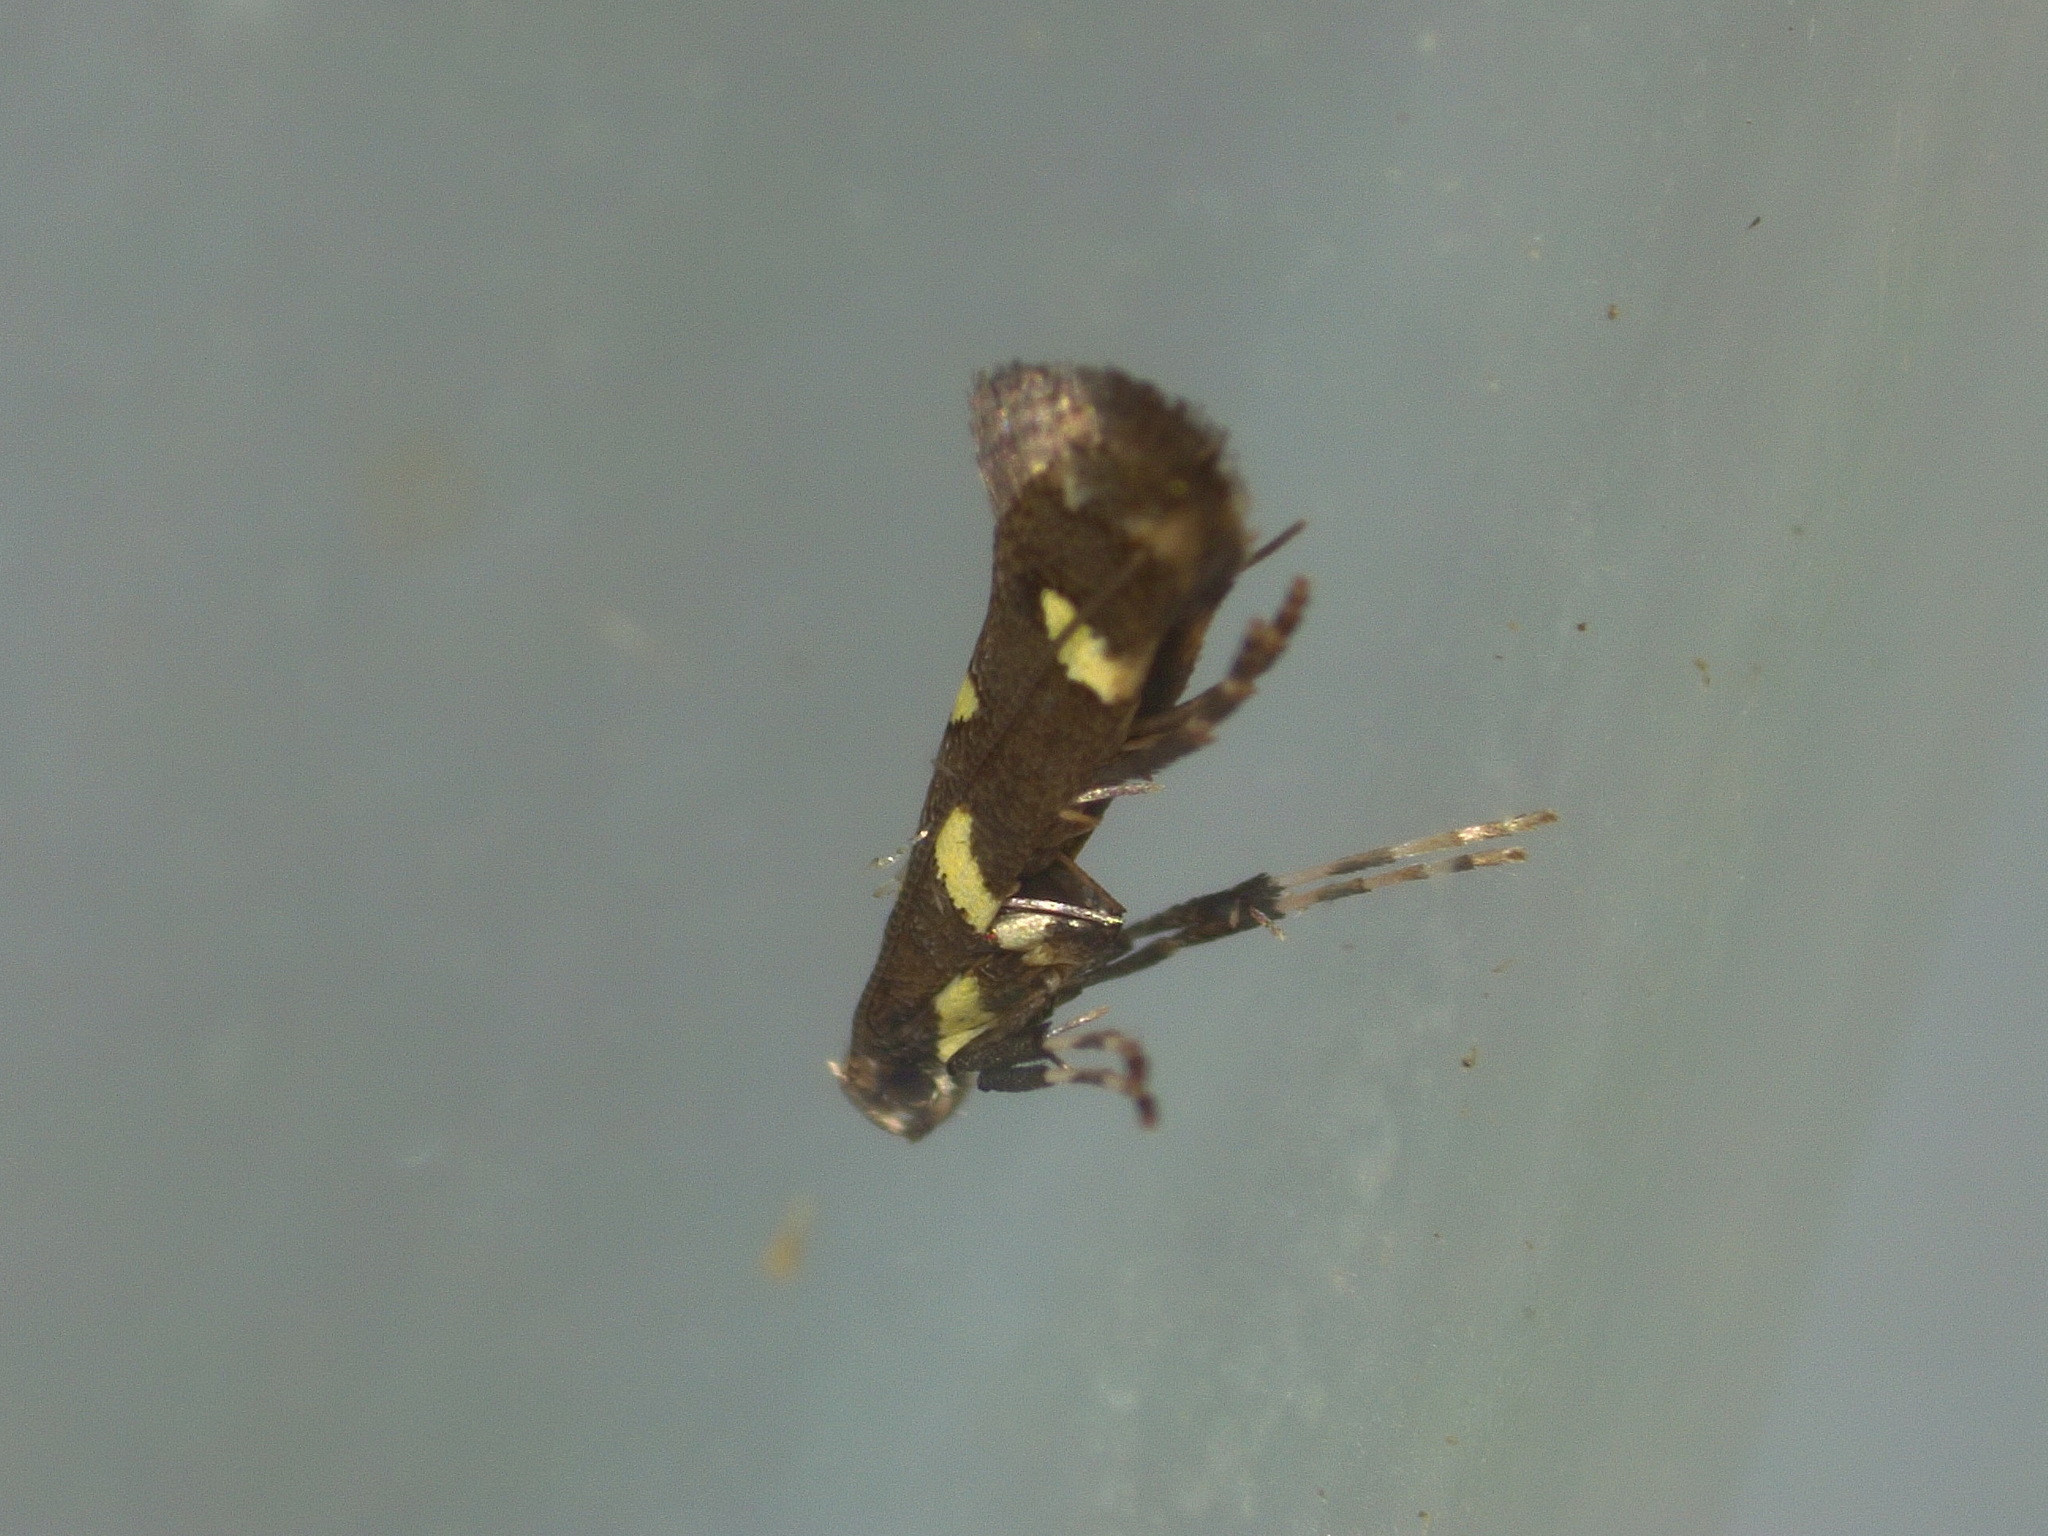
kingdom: Animalia
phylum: Arthropoda
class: Insecta
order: Lepidoptera
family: Gracillariidae
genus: Calybites
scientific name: Calybites phasianipennella
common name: Little slender
